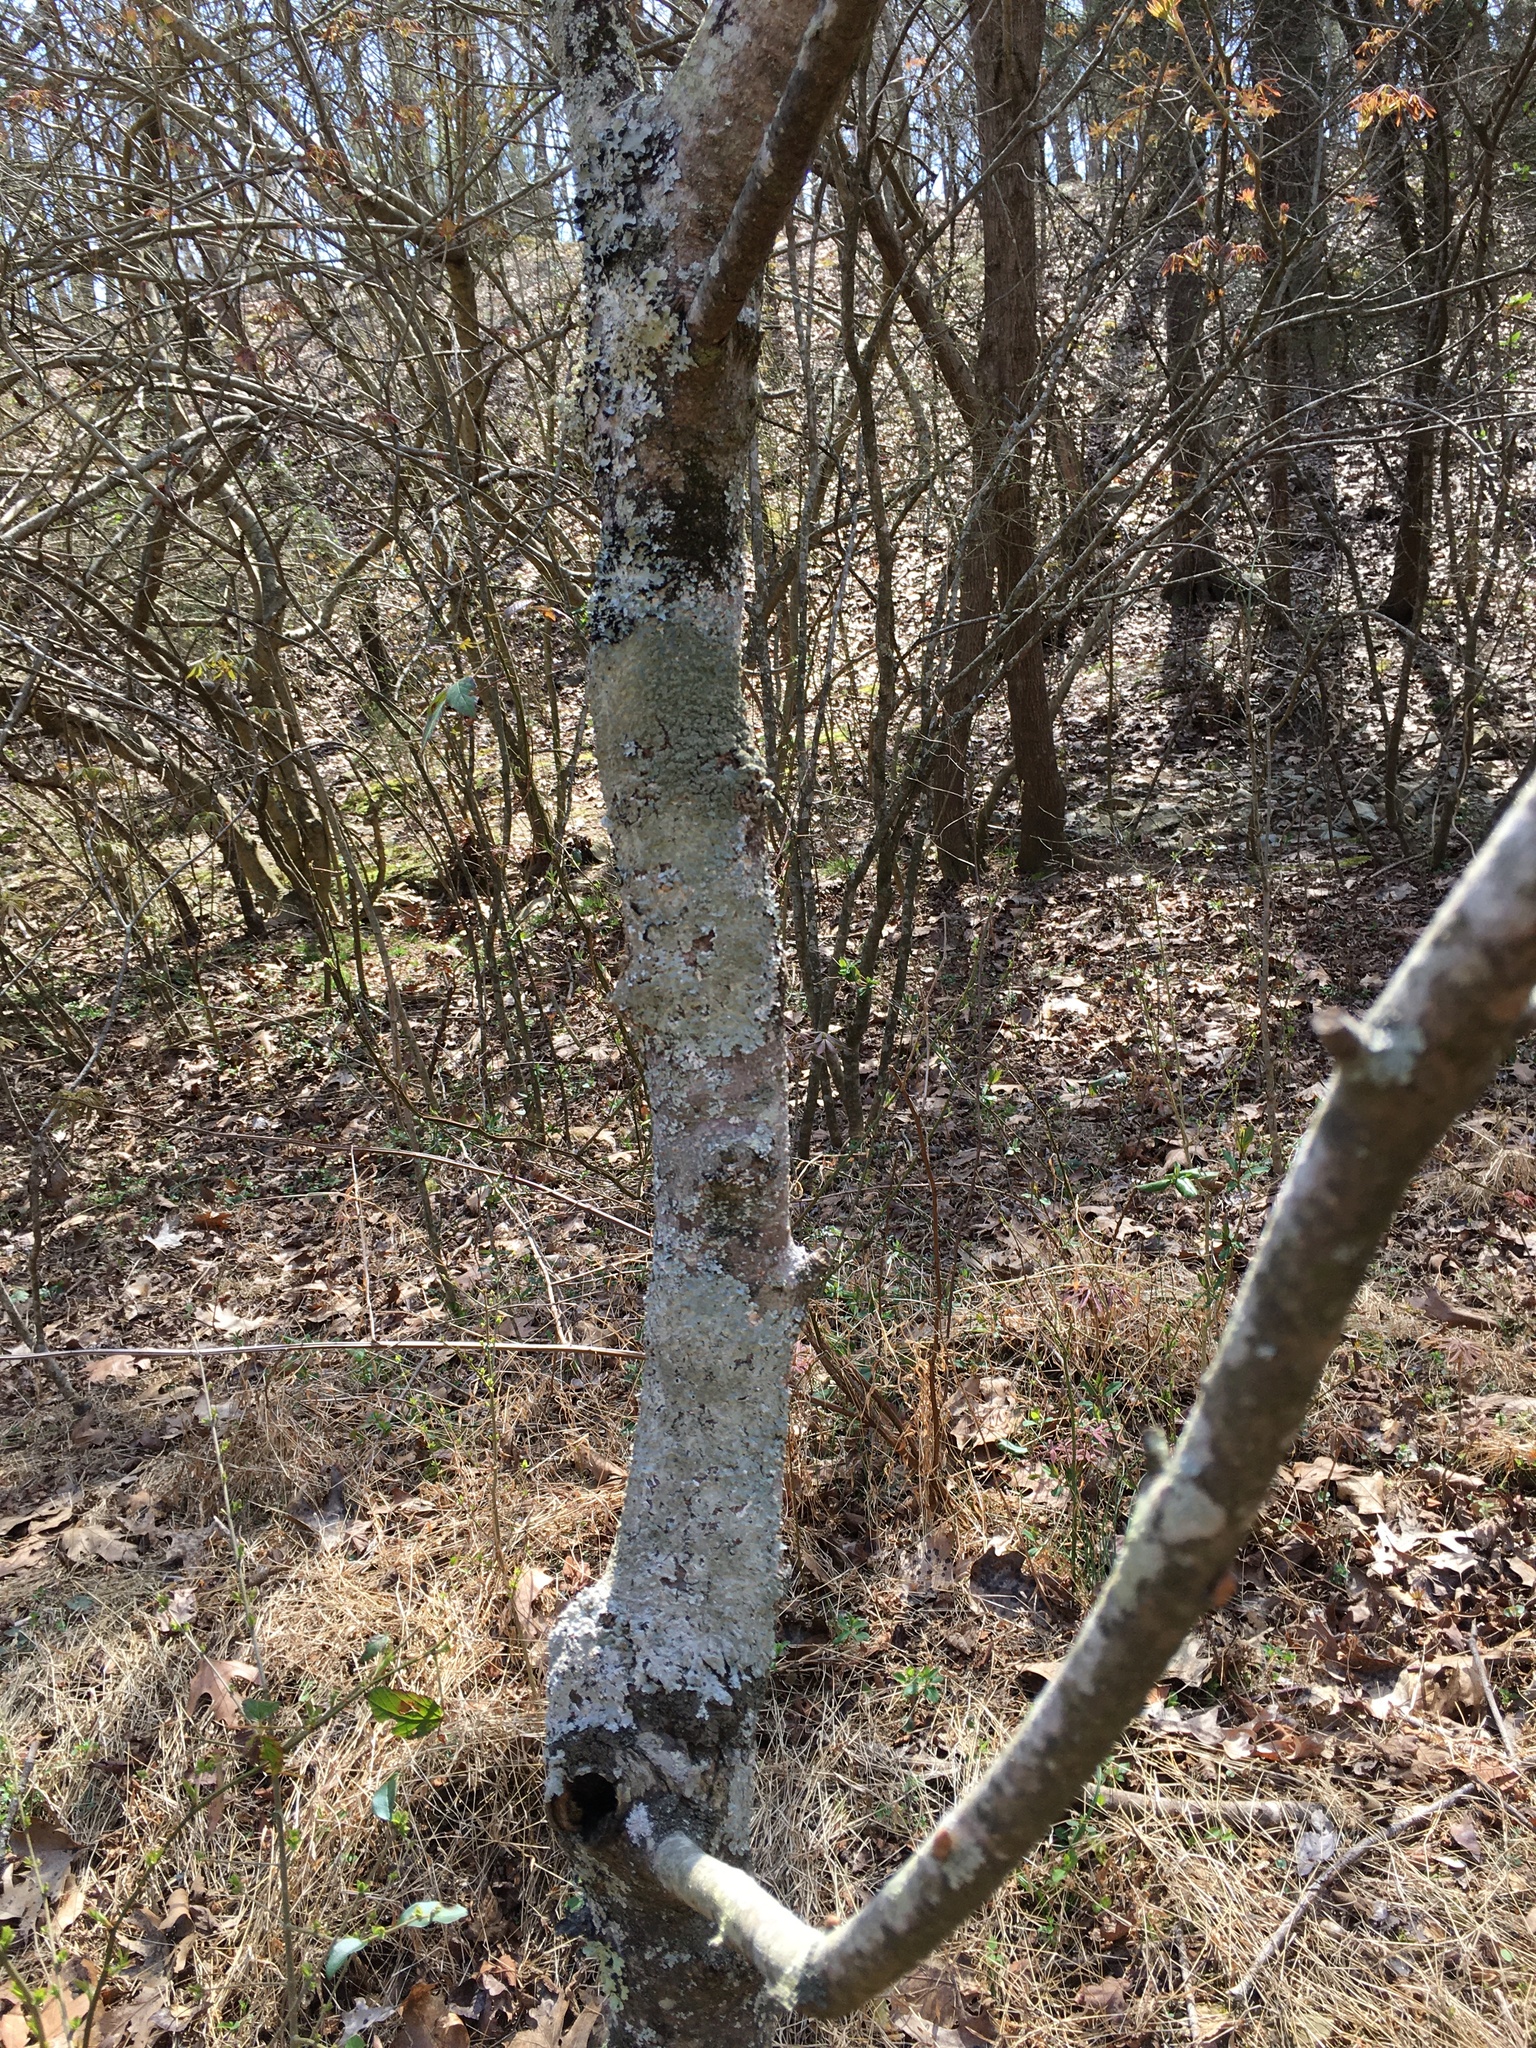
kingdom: Plantae
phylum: Tracheophyta
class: Magnoliopsida
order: Sapindales
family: Sapindaceae
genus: Aesculus
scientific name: Aesculus sylvatica
